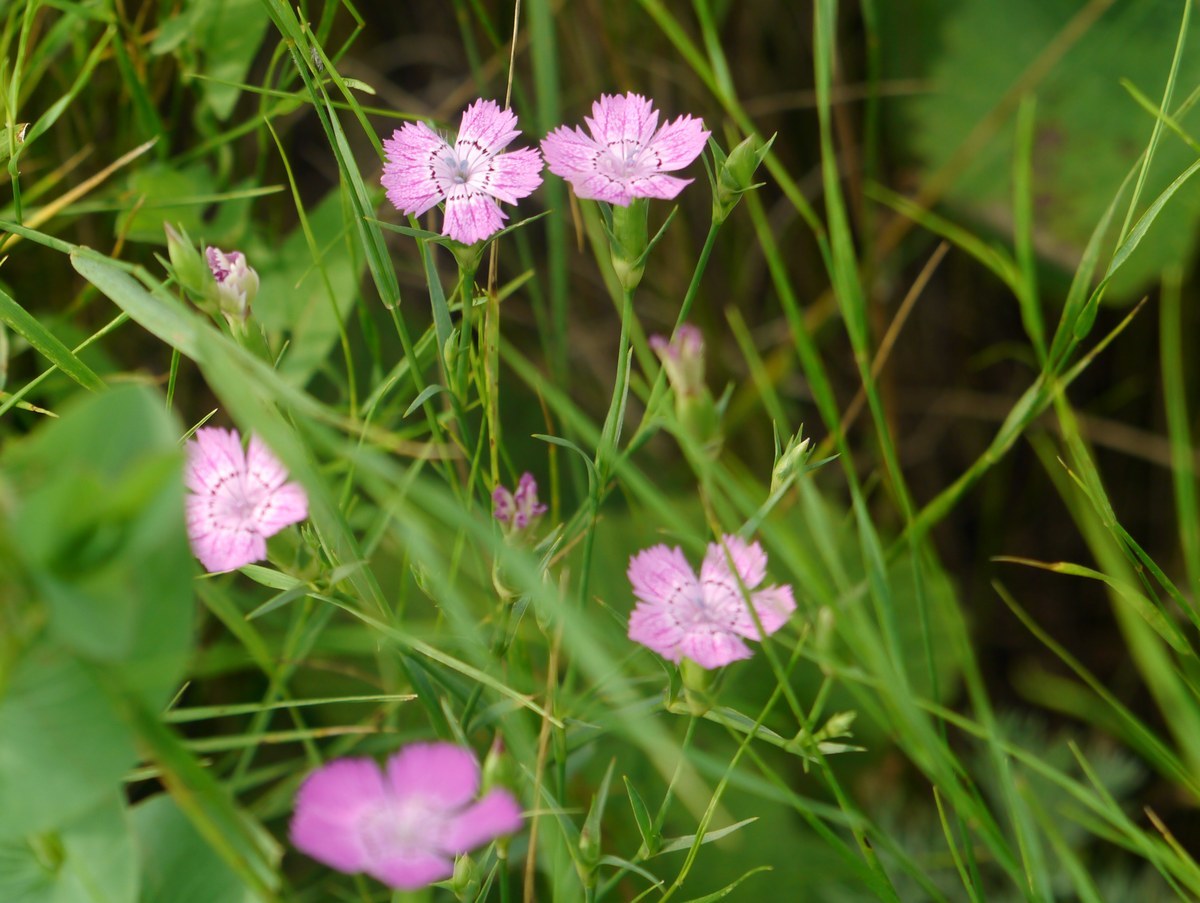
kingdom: Plantae
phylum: Tracheophyta
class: Magnoliopsida
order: Caryophyllales
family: Caryophyllaceae
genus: Dianthus
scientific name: Dianthus carbonatus
